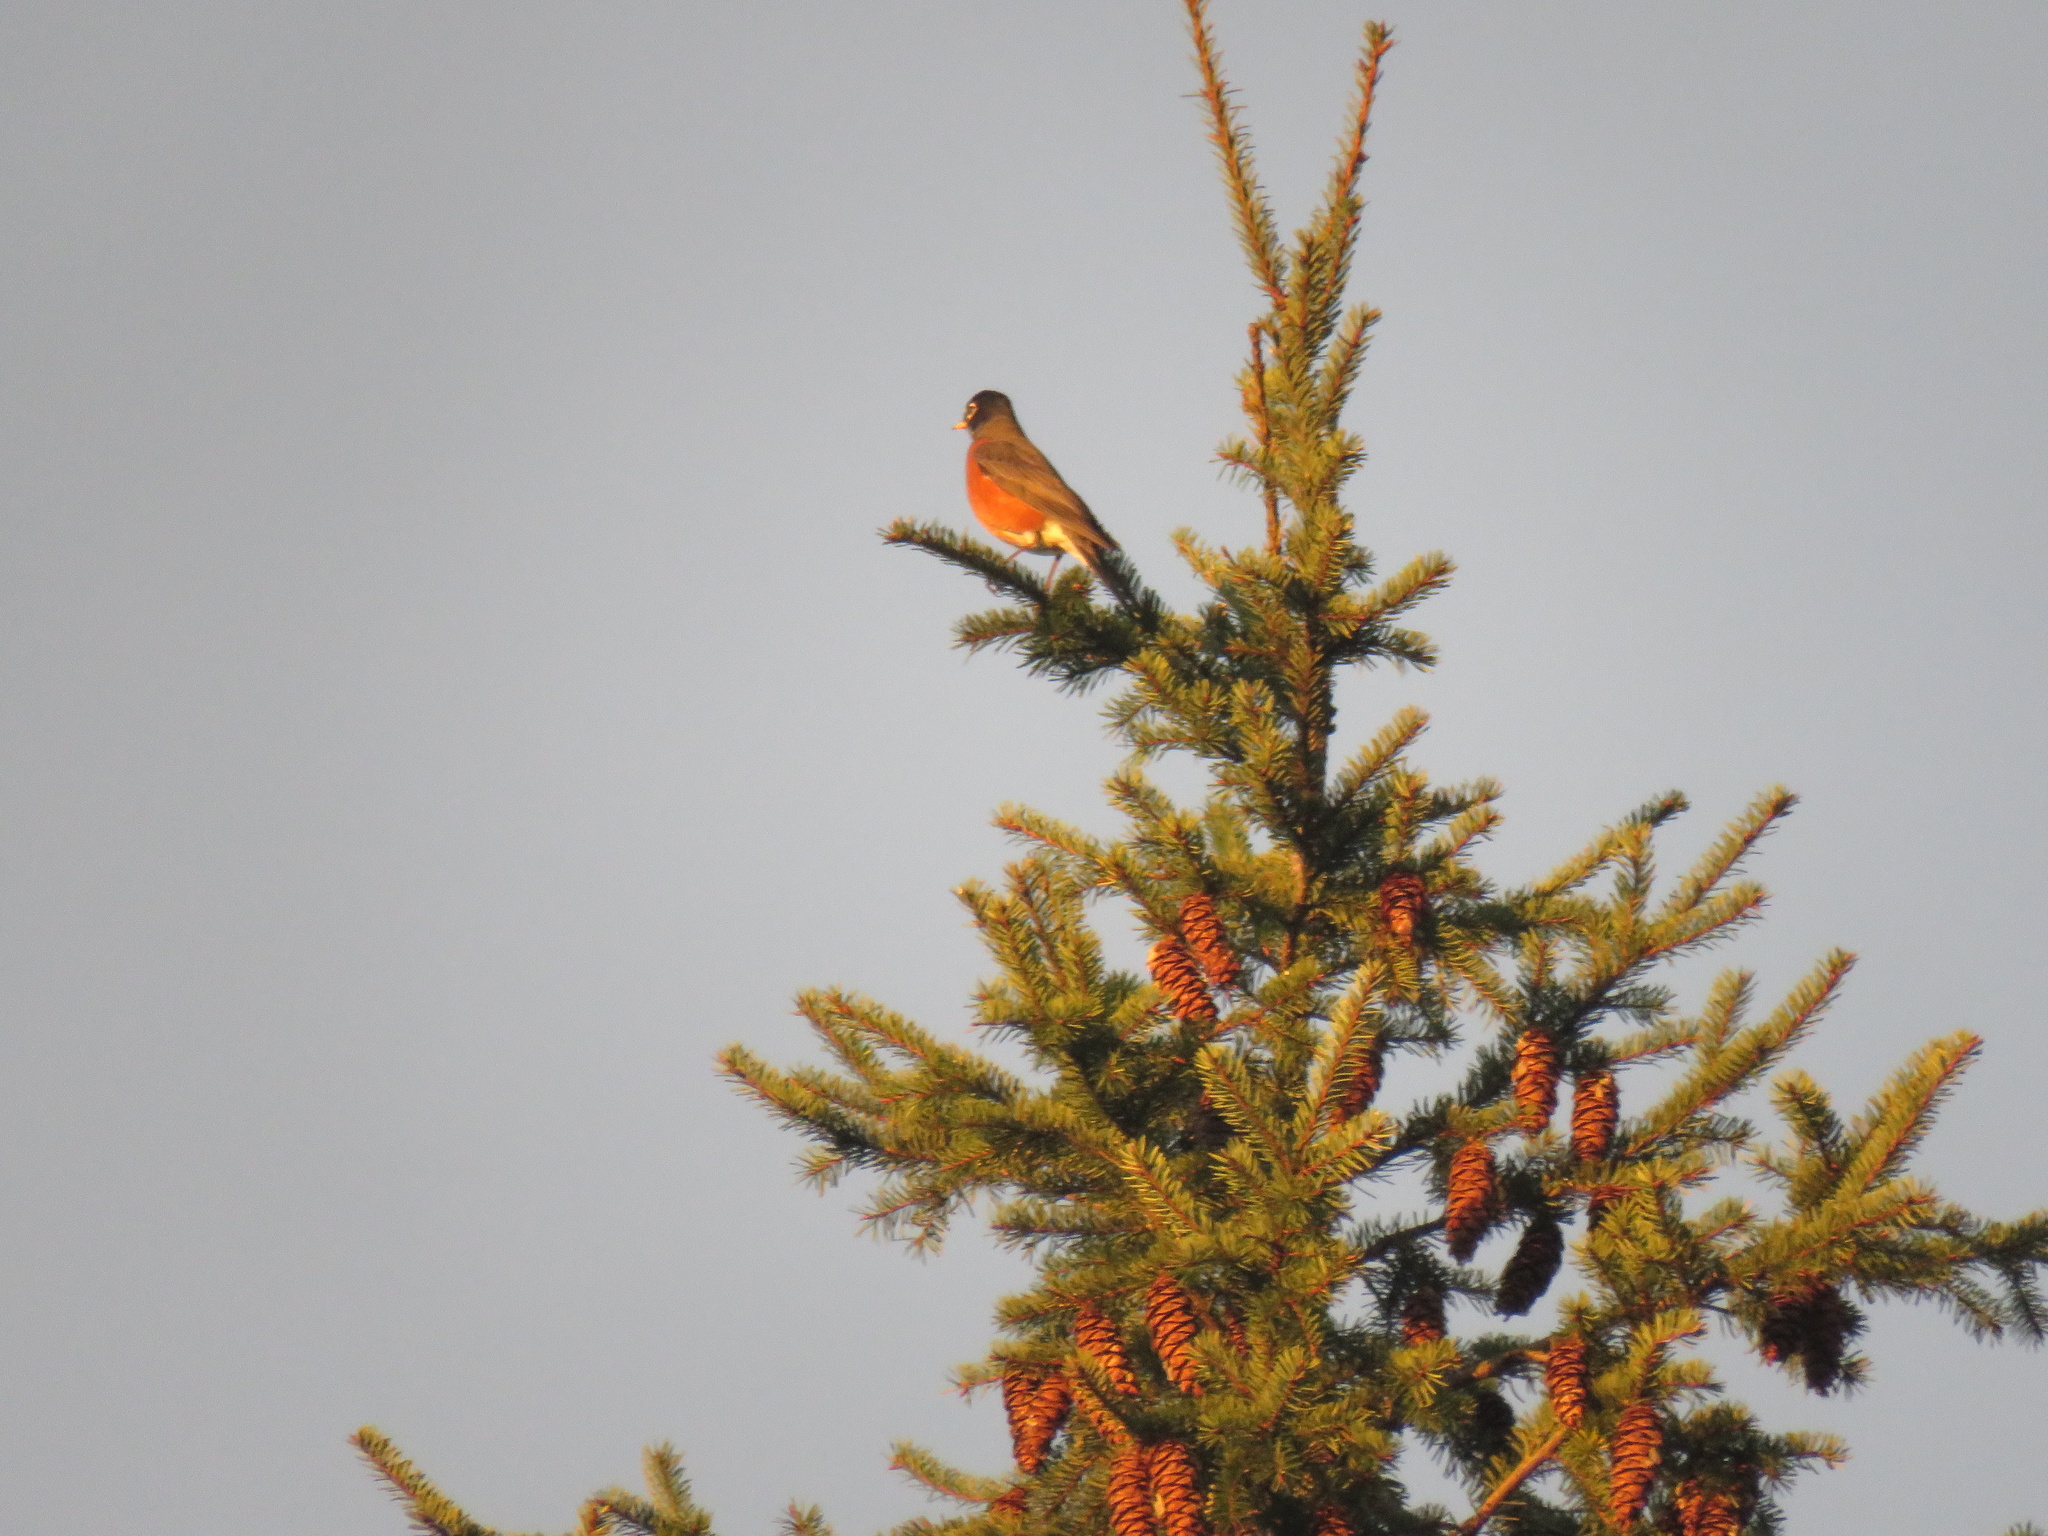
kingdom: Animalia
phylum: Chordata
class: Aves
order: Passeriformes
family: Turdidae
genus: Turdus
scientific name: Turdus migratorius
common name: American robin
